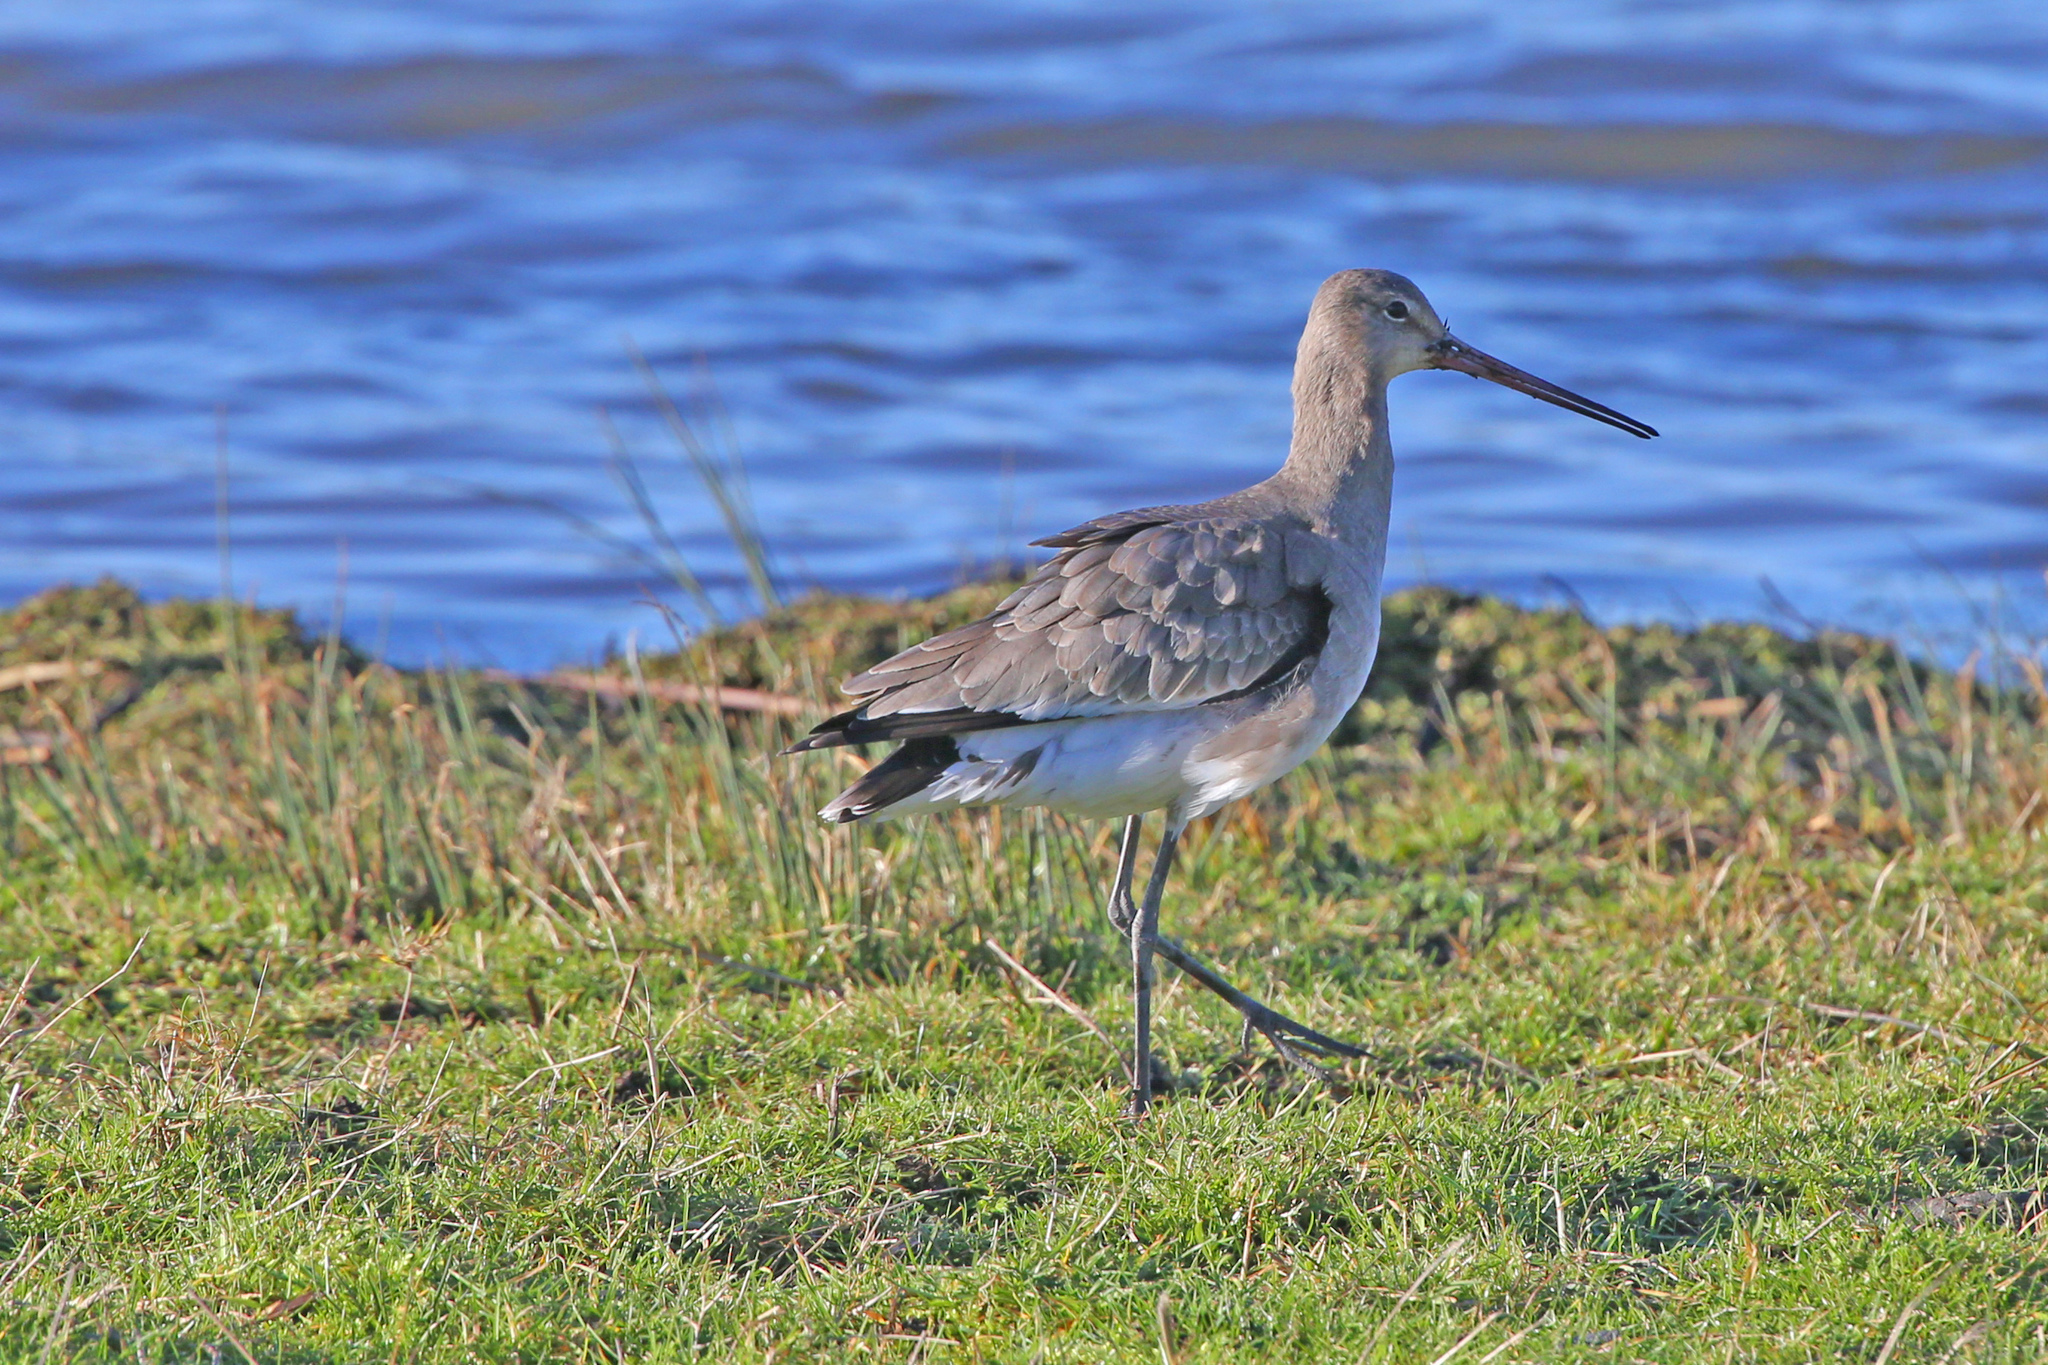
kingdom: Animalia
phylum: Chordata
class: Aves
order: Charadriiformes
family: Scolopacidae
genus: Limosa
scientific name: Limosa limosa
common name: Black-tailed godwit
